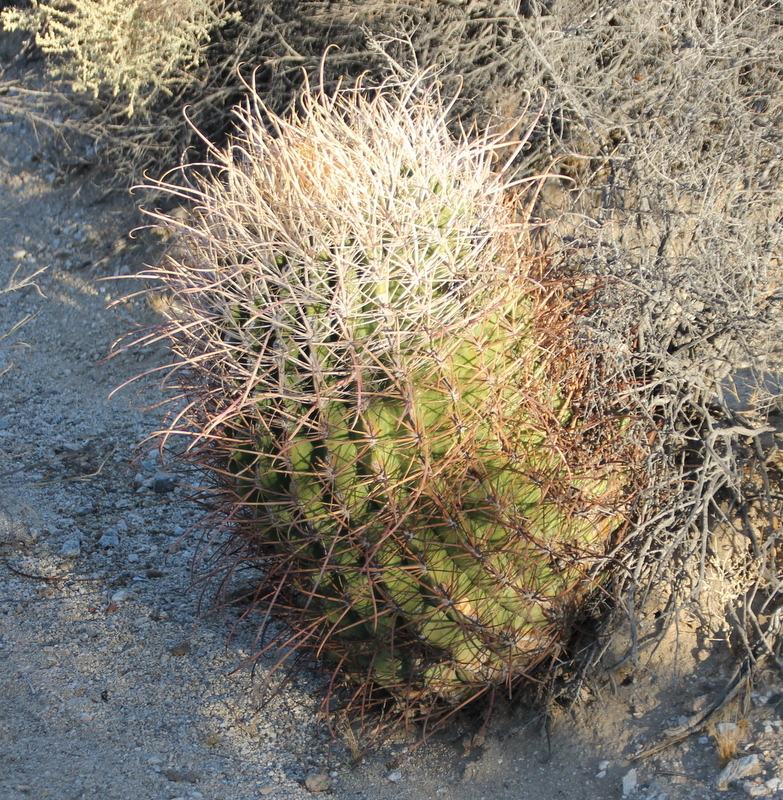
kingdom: Plantae
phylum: Tracheophyta
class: Magnoliopsida
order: Caryophyllales
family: Cactaceae
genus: Ferocactus
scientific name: Ferocactus cylindraceus
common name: California barrel cactus
